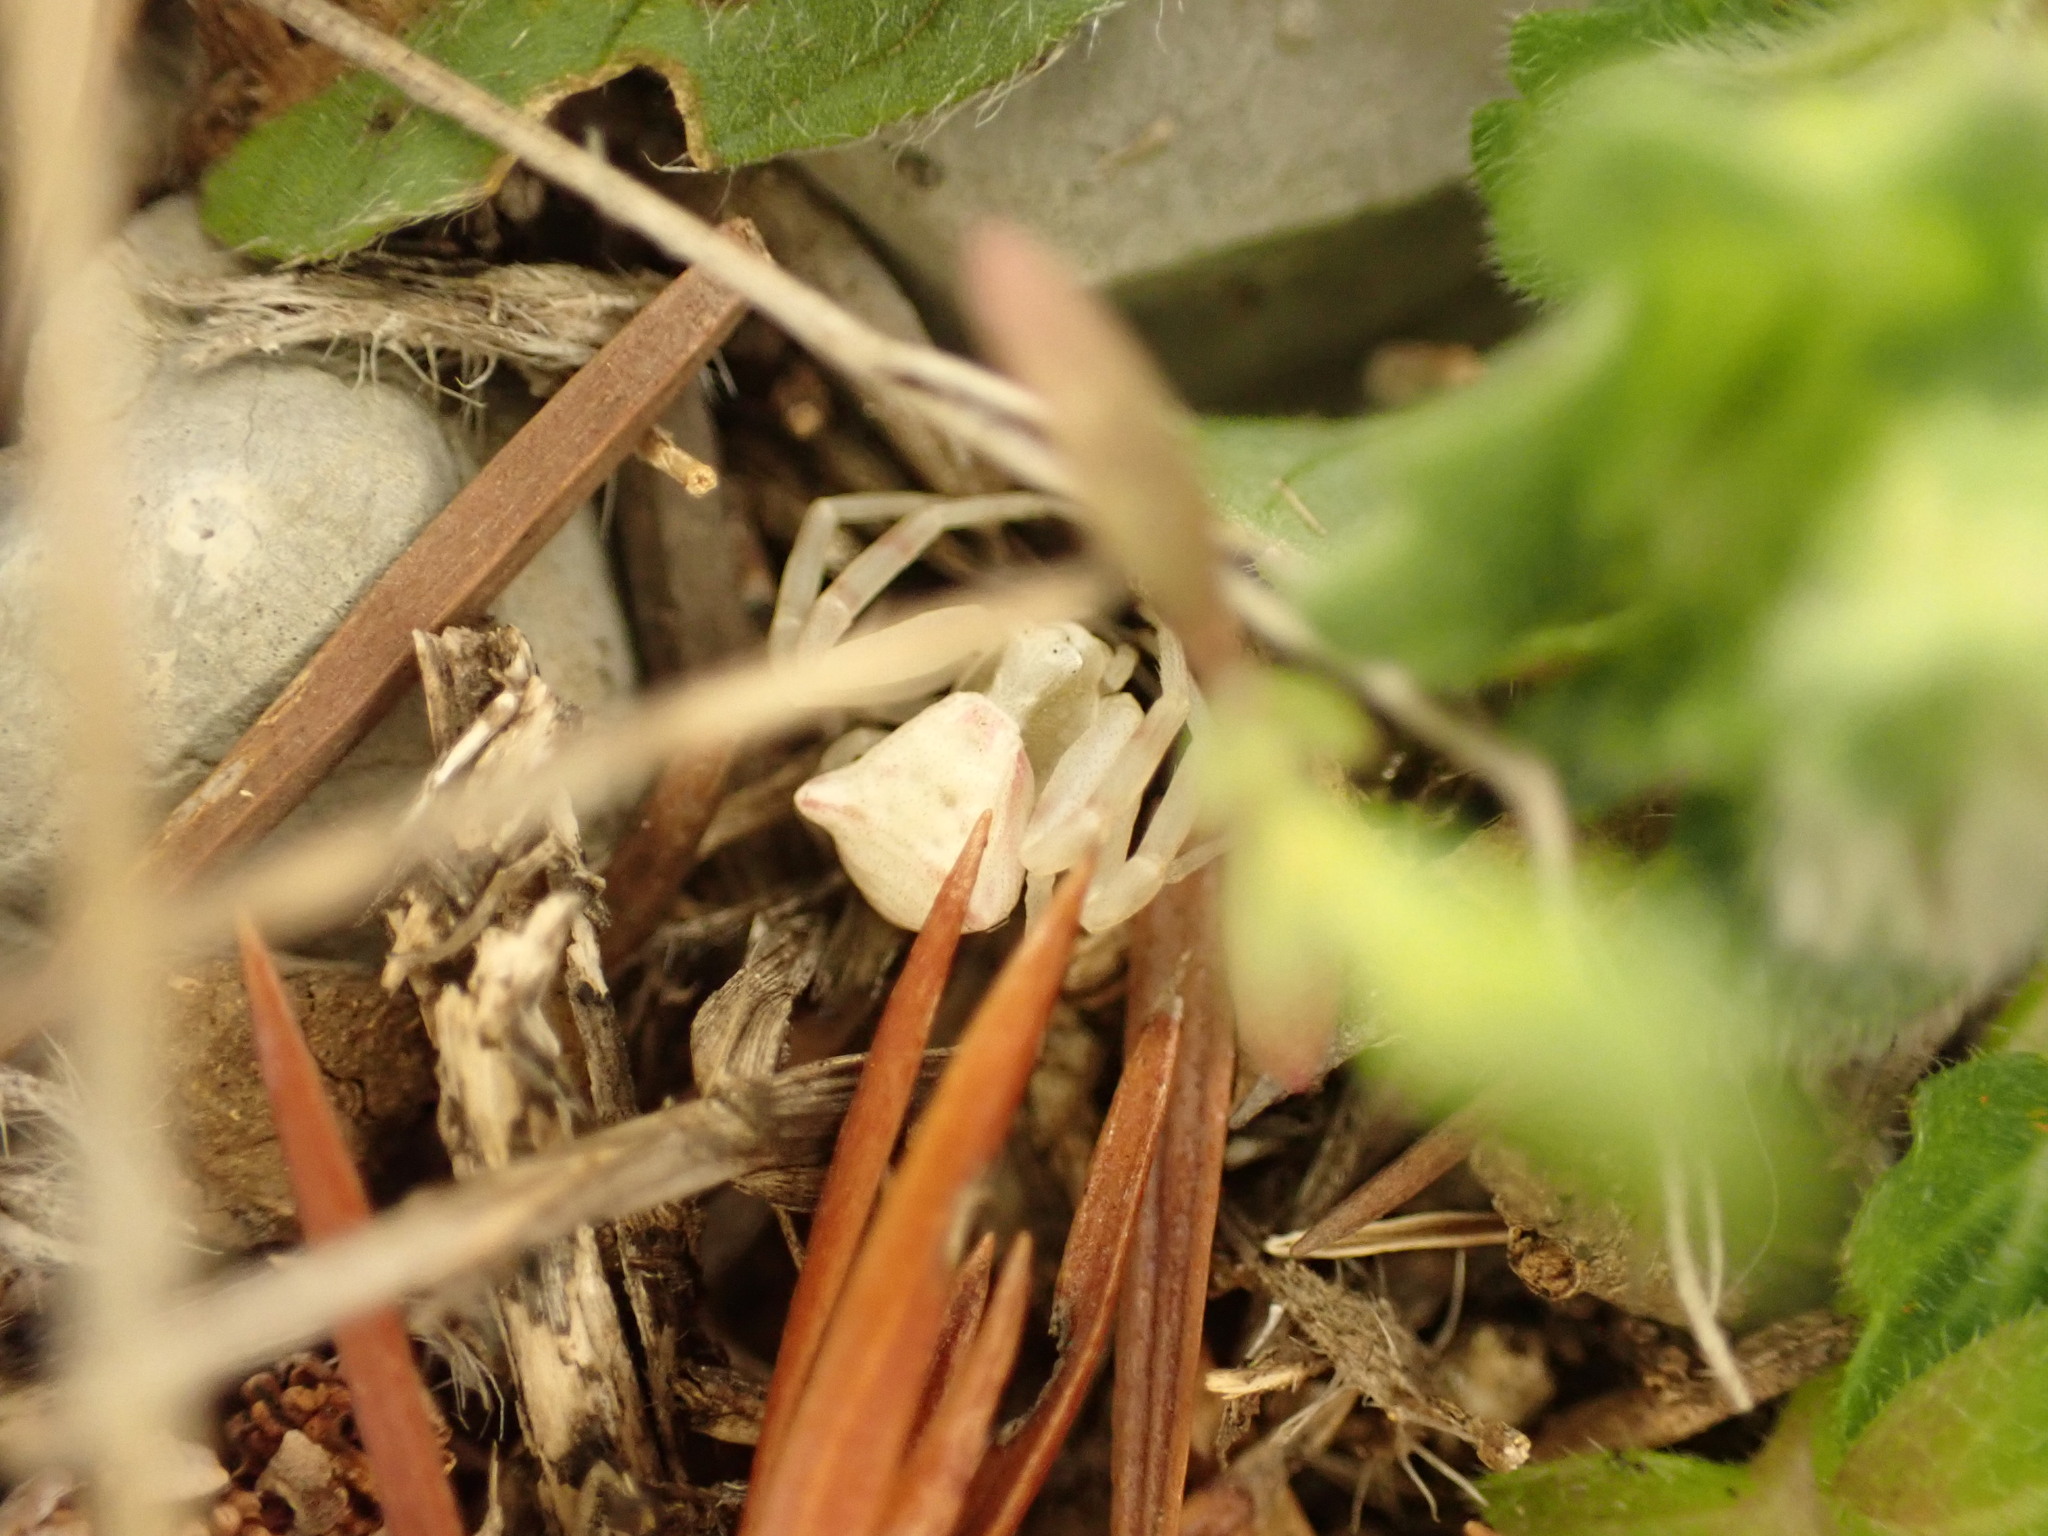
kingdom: Animalia
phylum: Arthropoda
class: Arachnida
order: Araneae
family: Thomisidae
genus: Thomisus
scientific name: Thomisus onustus
